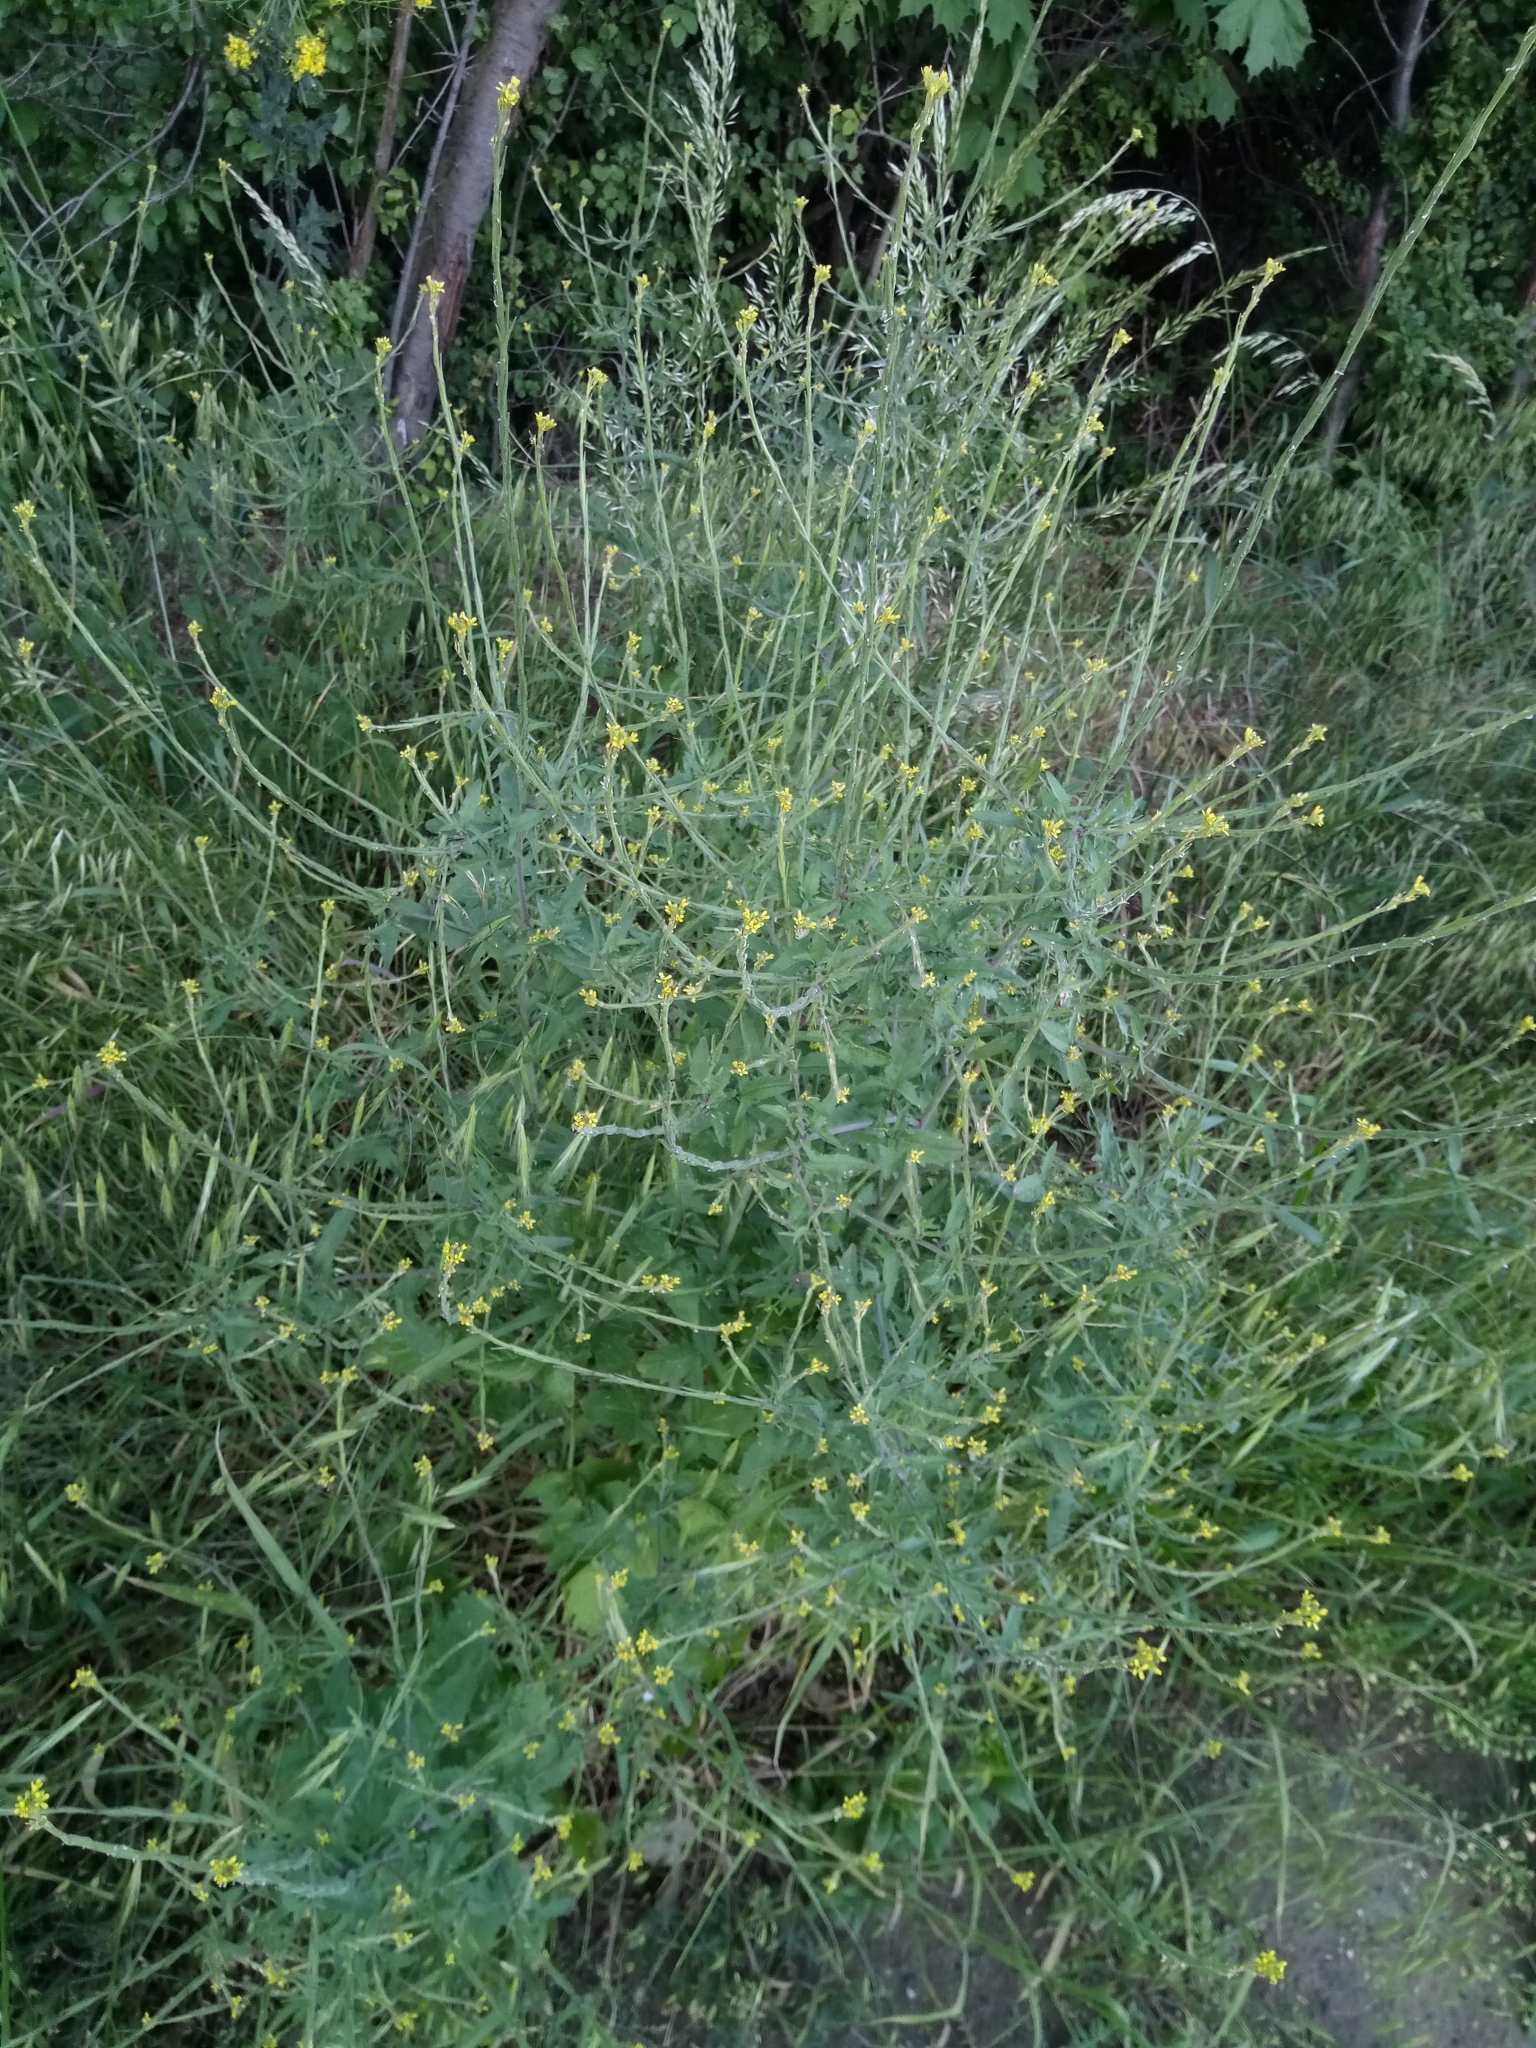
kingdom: Plantae
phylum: Tracheophyta
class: Magnoliopsida
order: Brassicales
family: Brassicaceae
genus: Sisymbrium
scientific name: Sisymbrium officinale
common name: Hedge mustard
